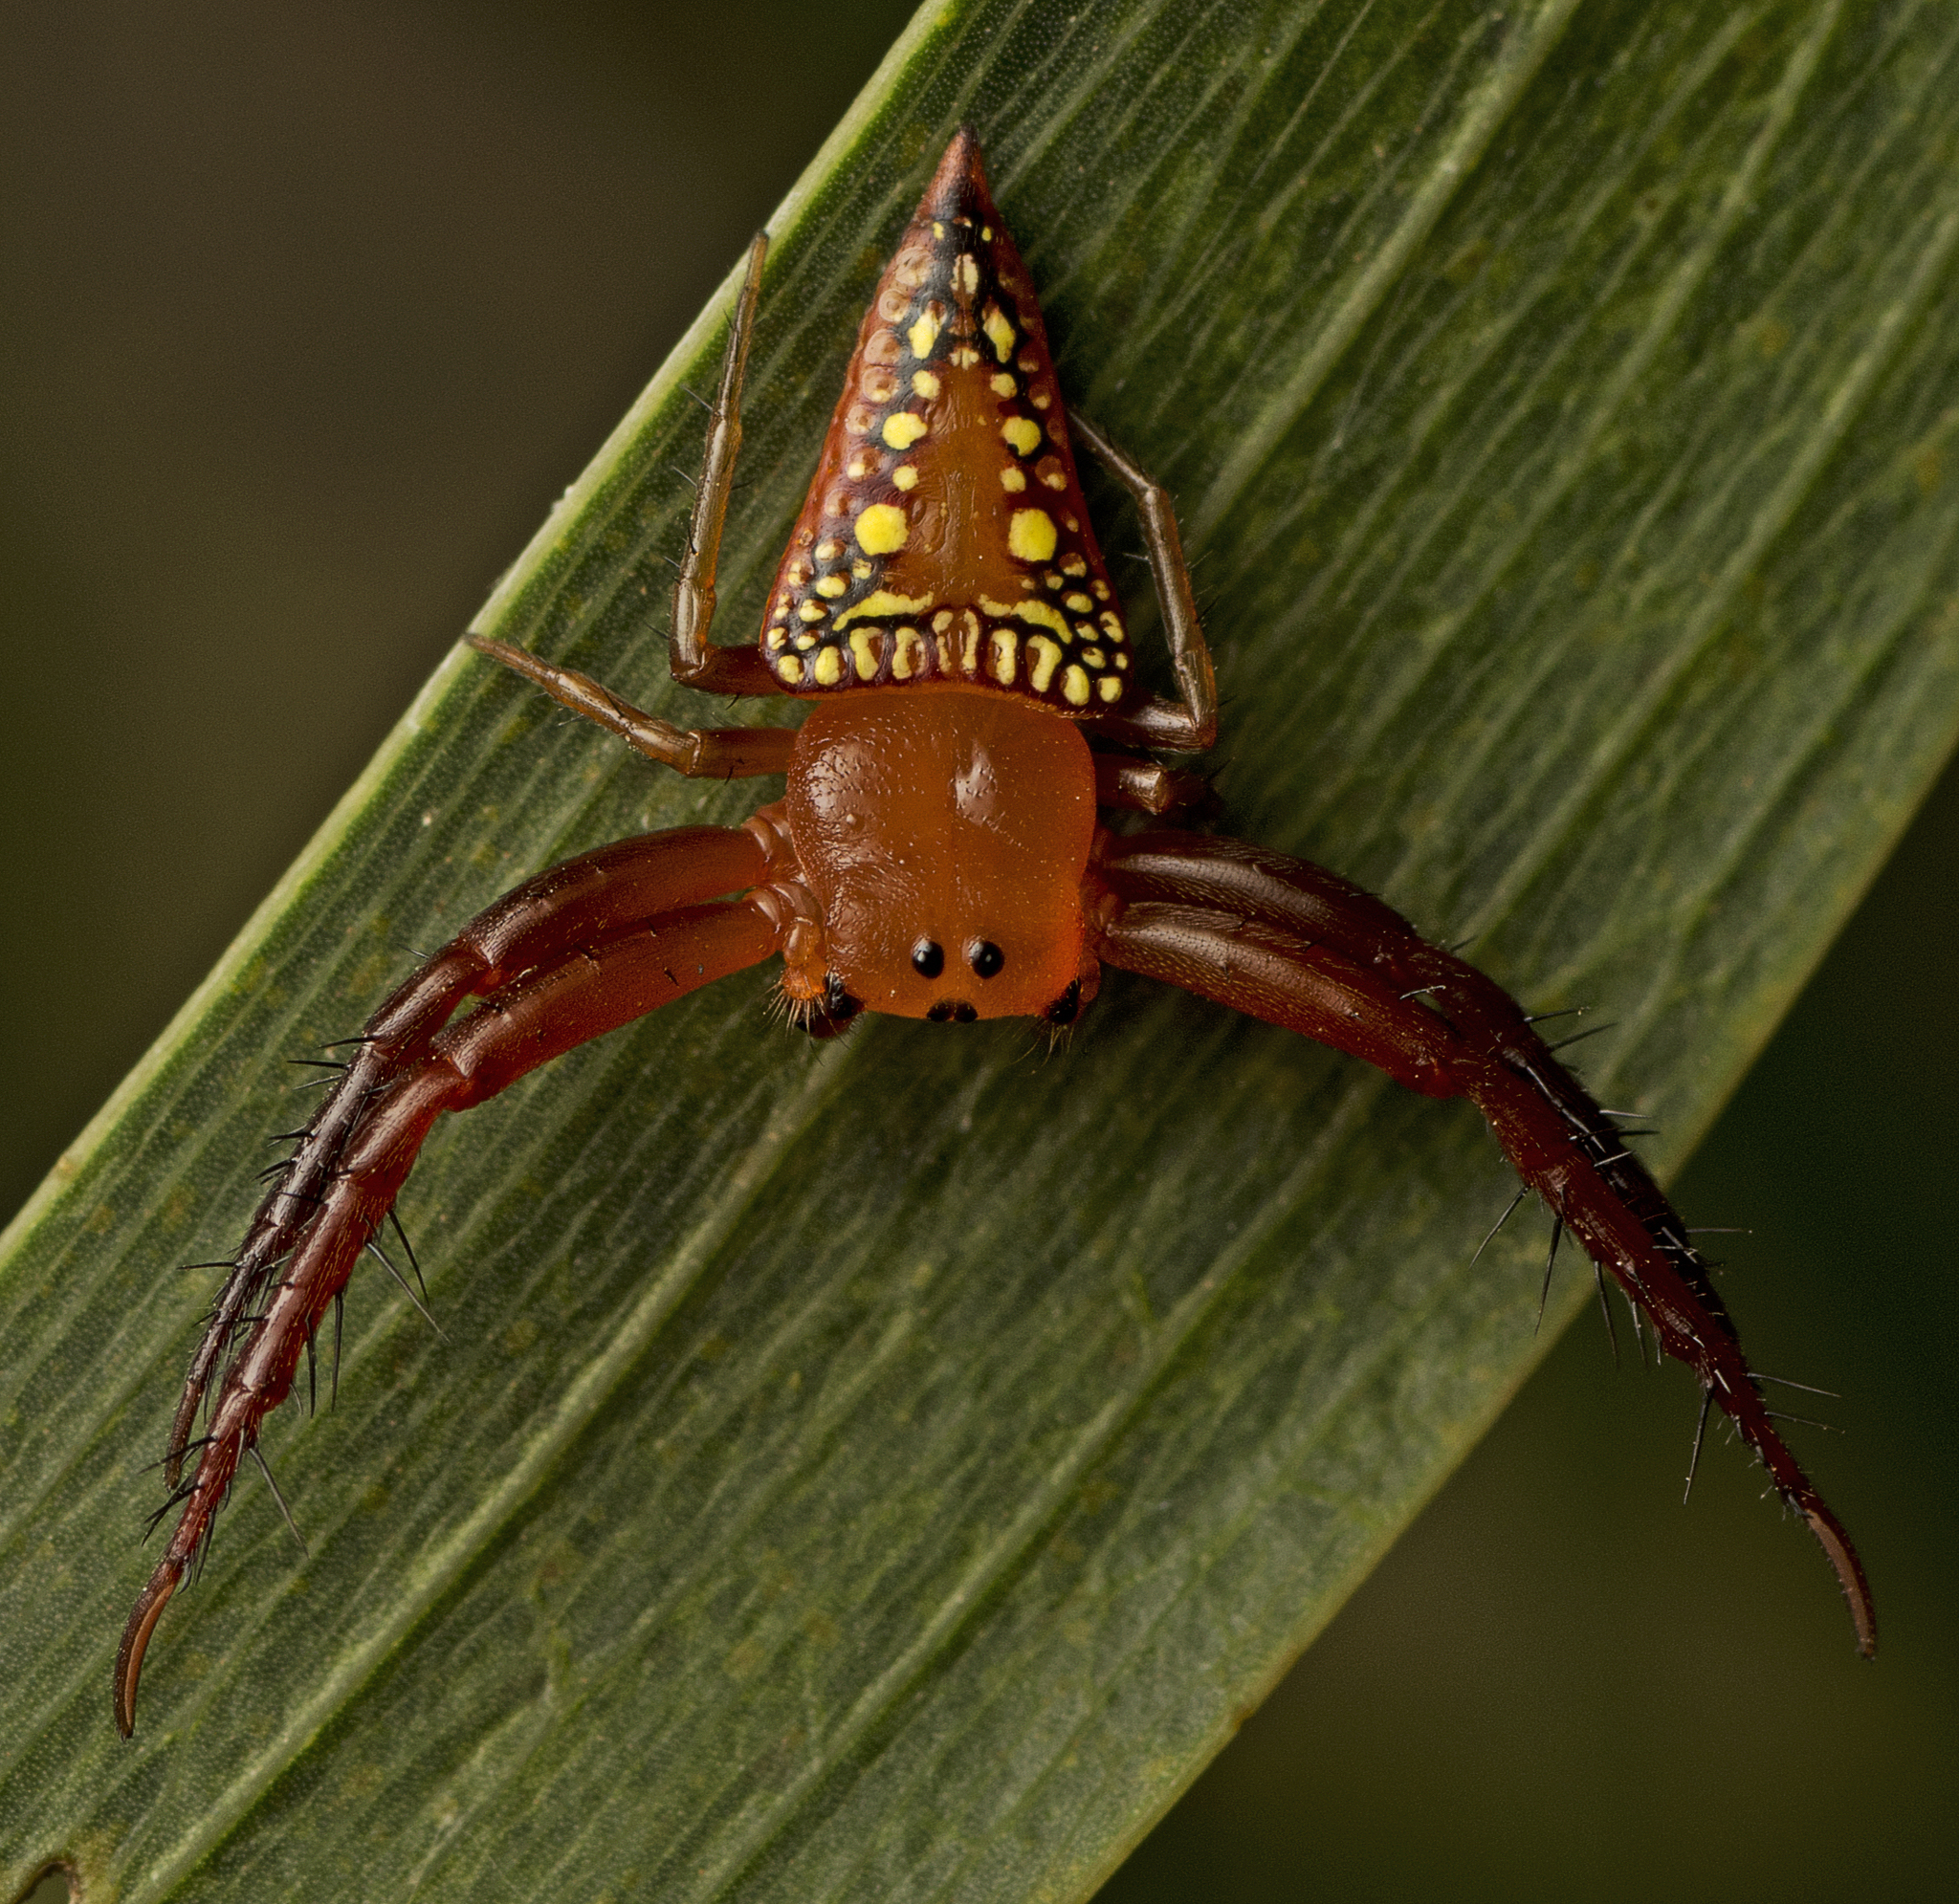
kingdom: Animalia
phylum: Arthropoda
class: Arachnida
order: Araneae
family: Arkyidae
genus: Arkys
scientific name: Arkys walckenaeri
